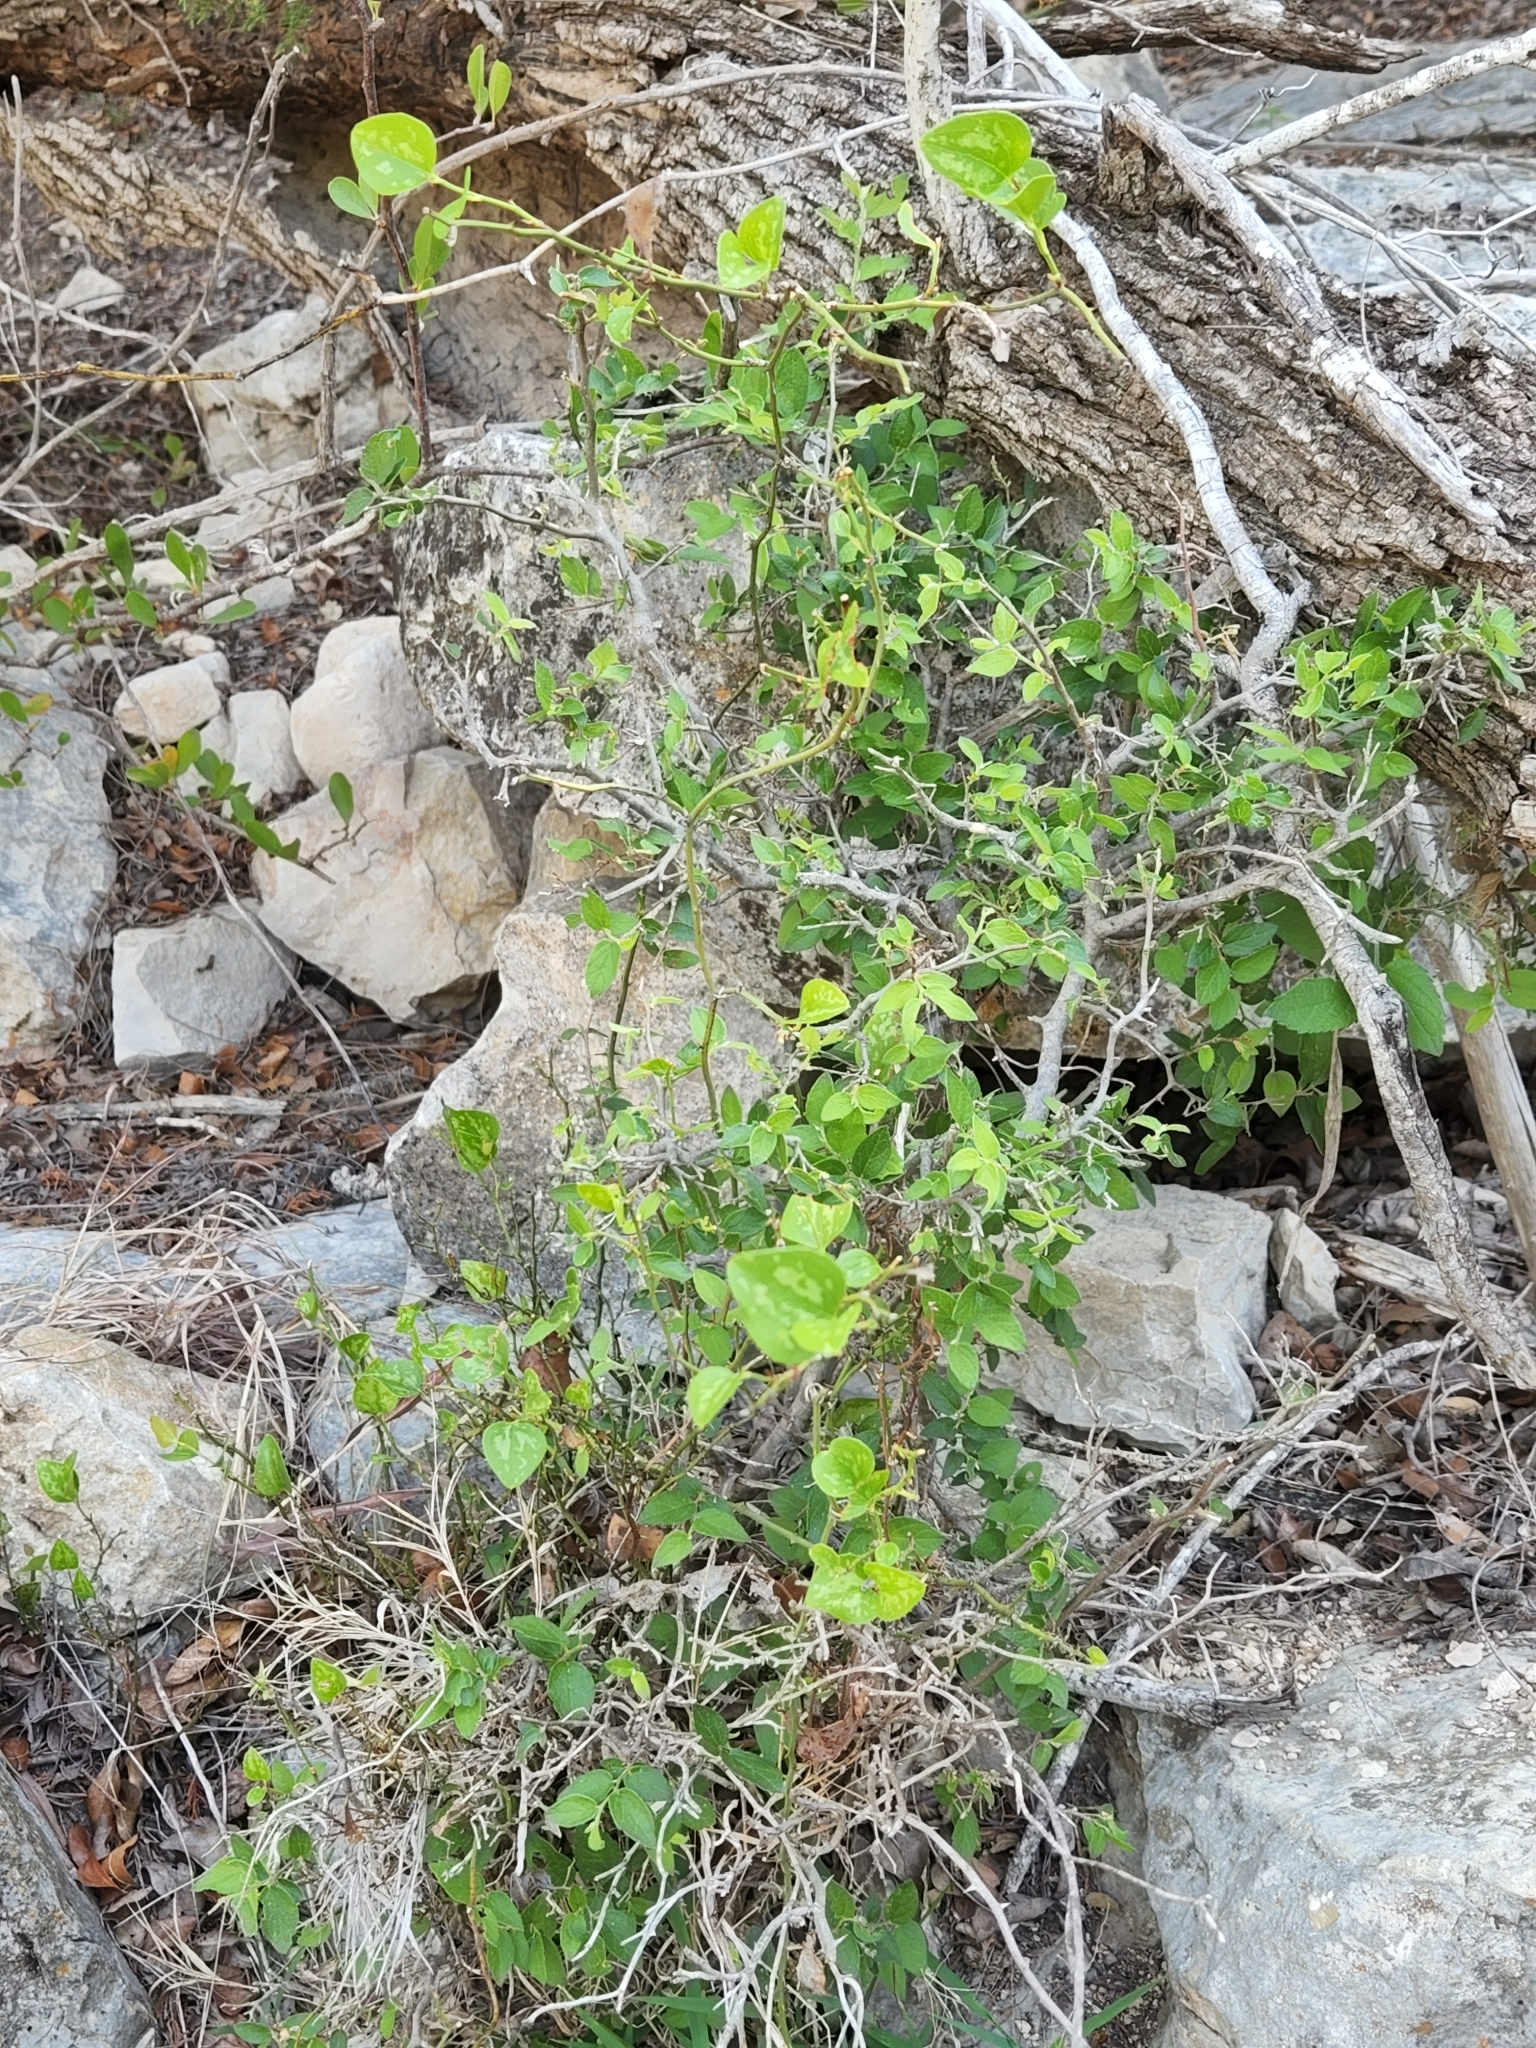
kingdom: Plantae
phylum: Tracheophyta
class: Liliopsida
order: Liliales
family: Smilacaceae
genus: Smilax
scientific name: Smilax bona-nox
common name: Catbrier
